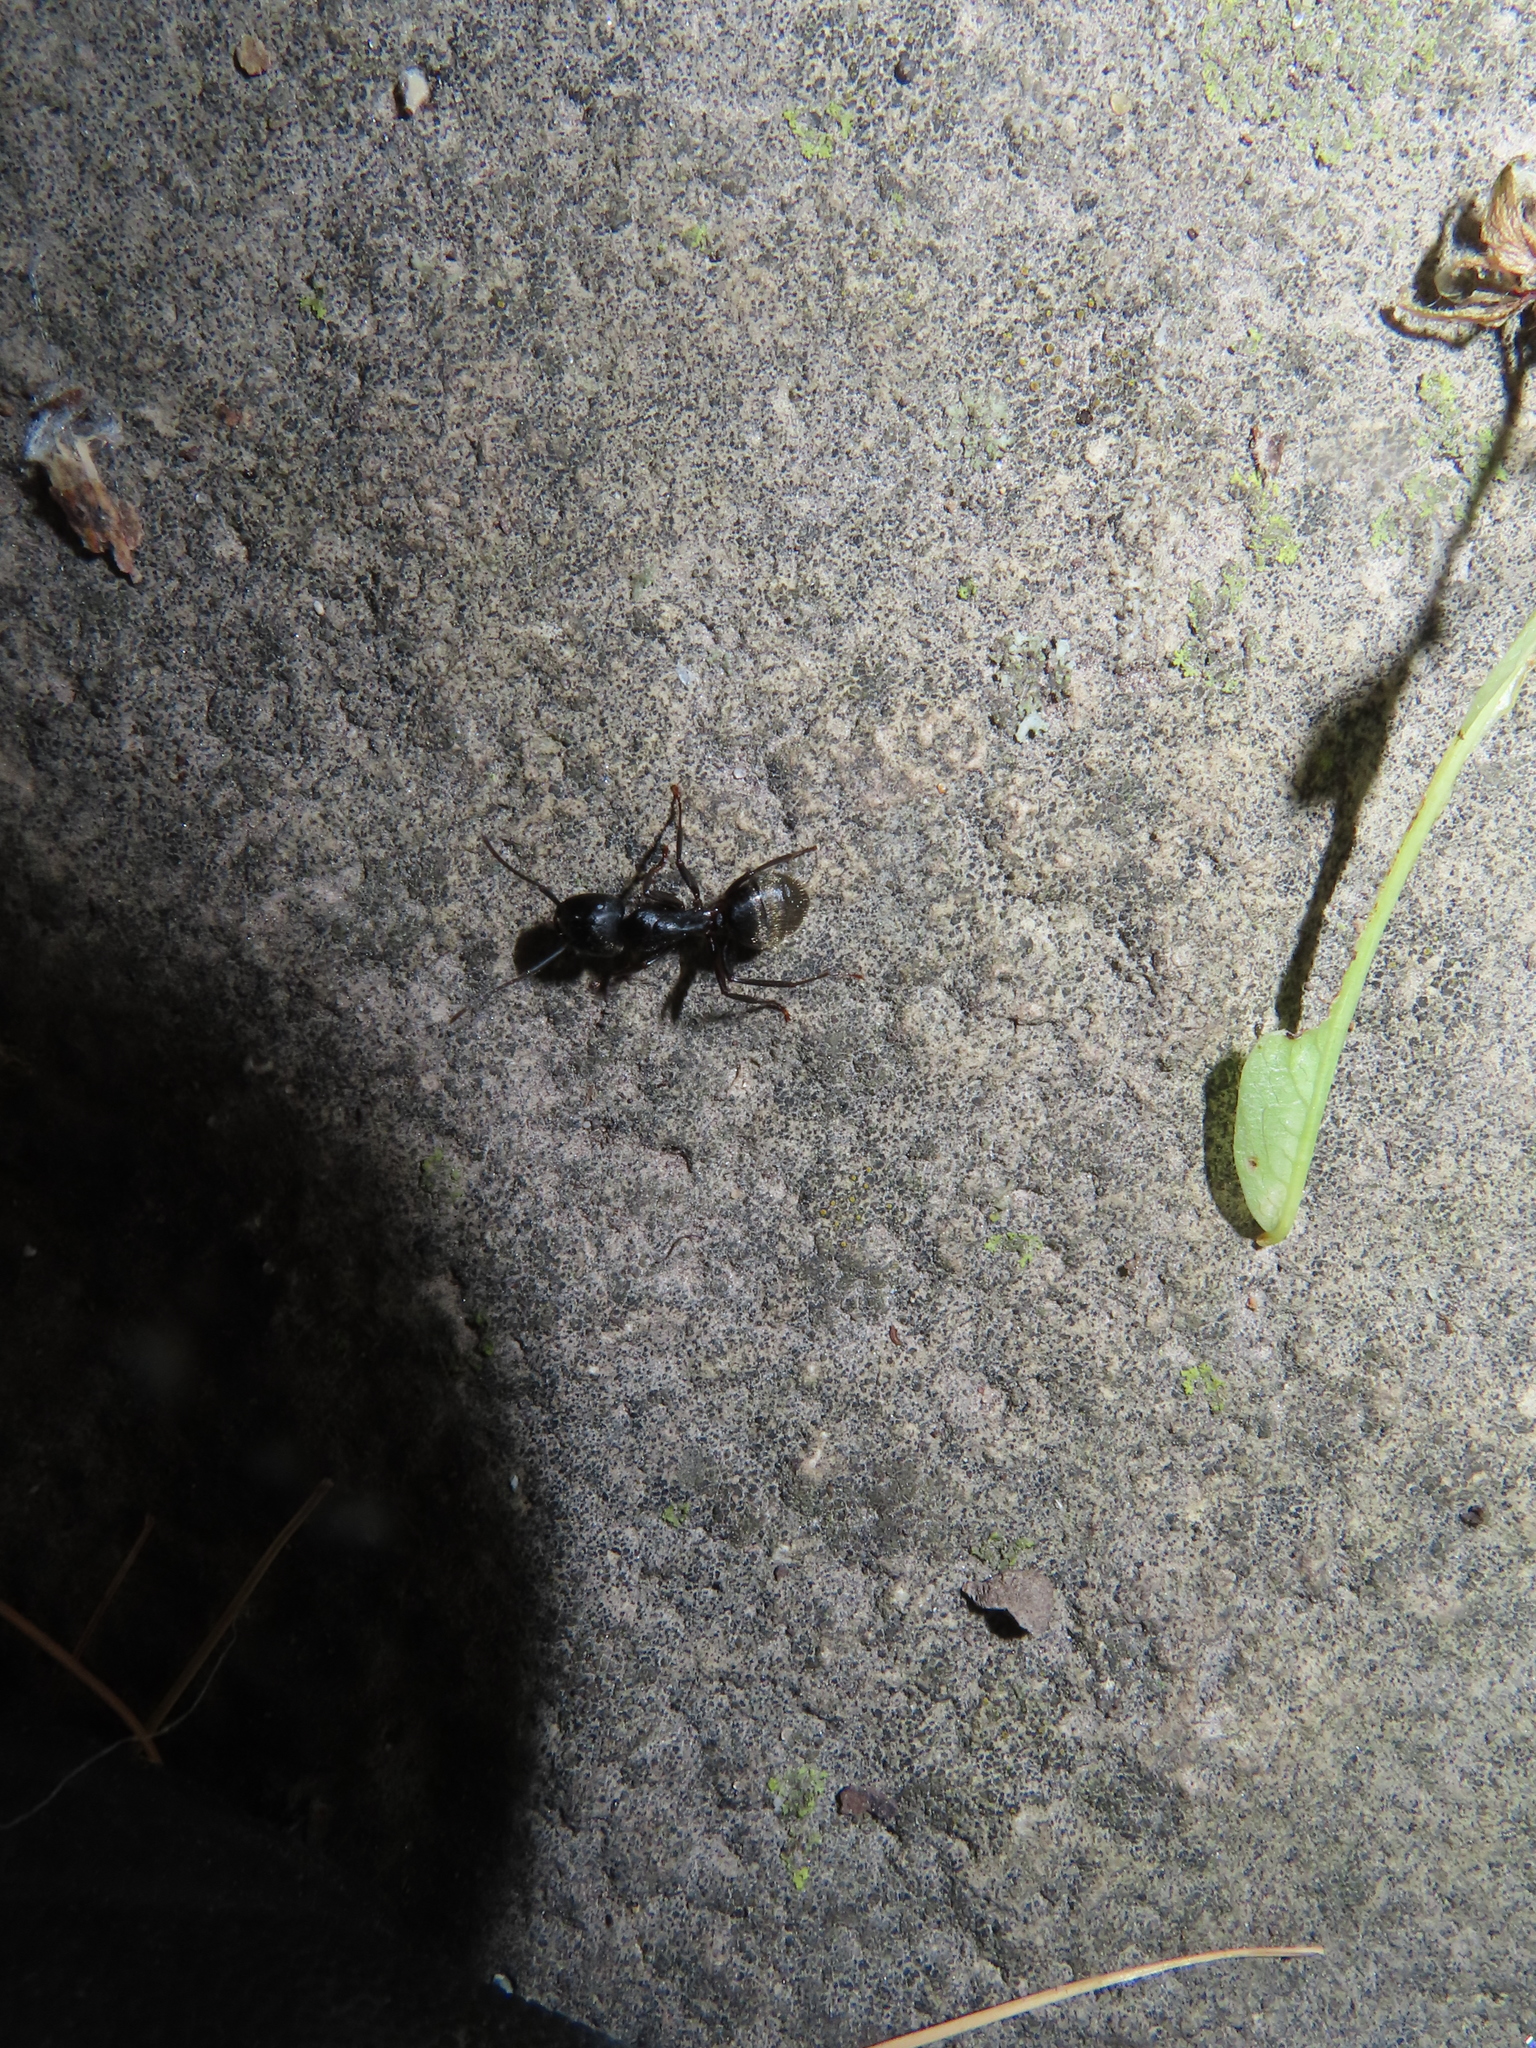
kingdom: Animalia
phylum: Arthropoda
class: Insecta
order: Hymenoptera
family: Formicidae
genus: Camponotus
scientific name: Camponotus pennsylvanicus
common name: Black carpenter ant
